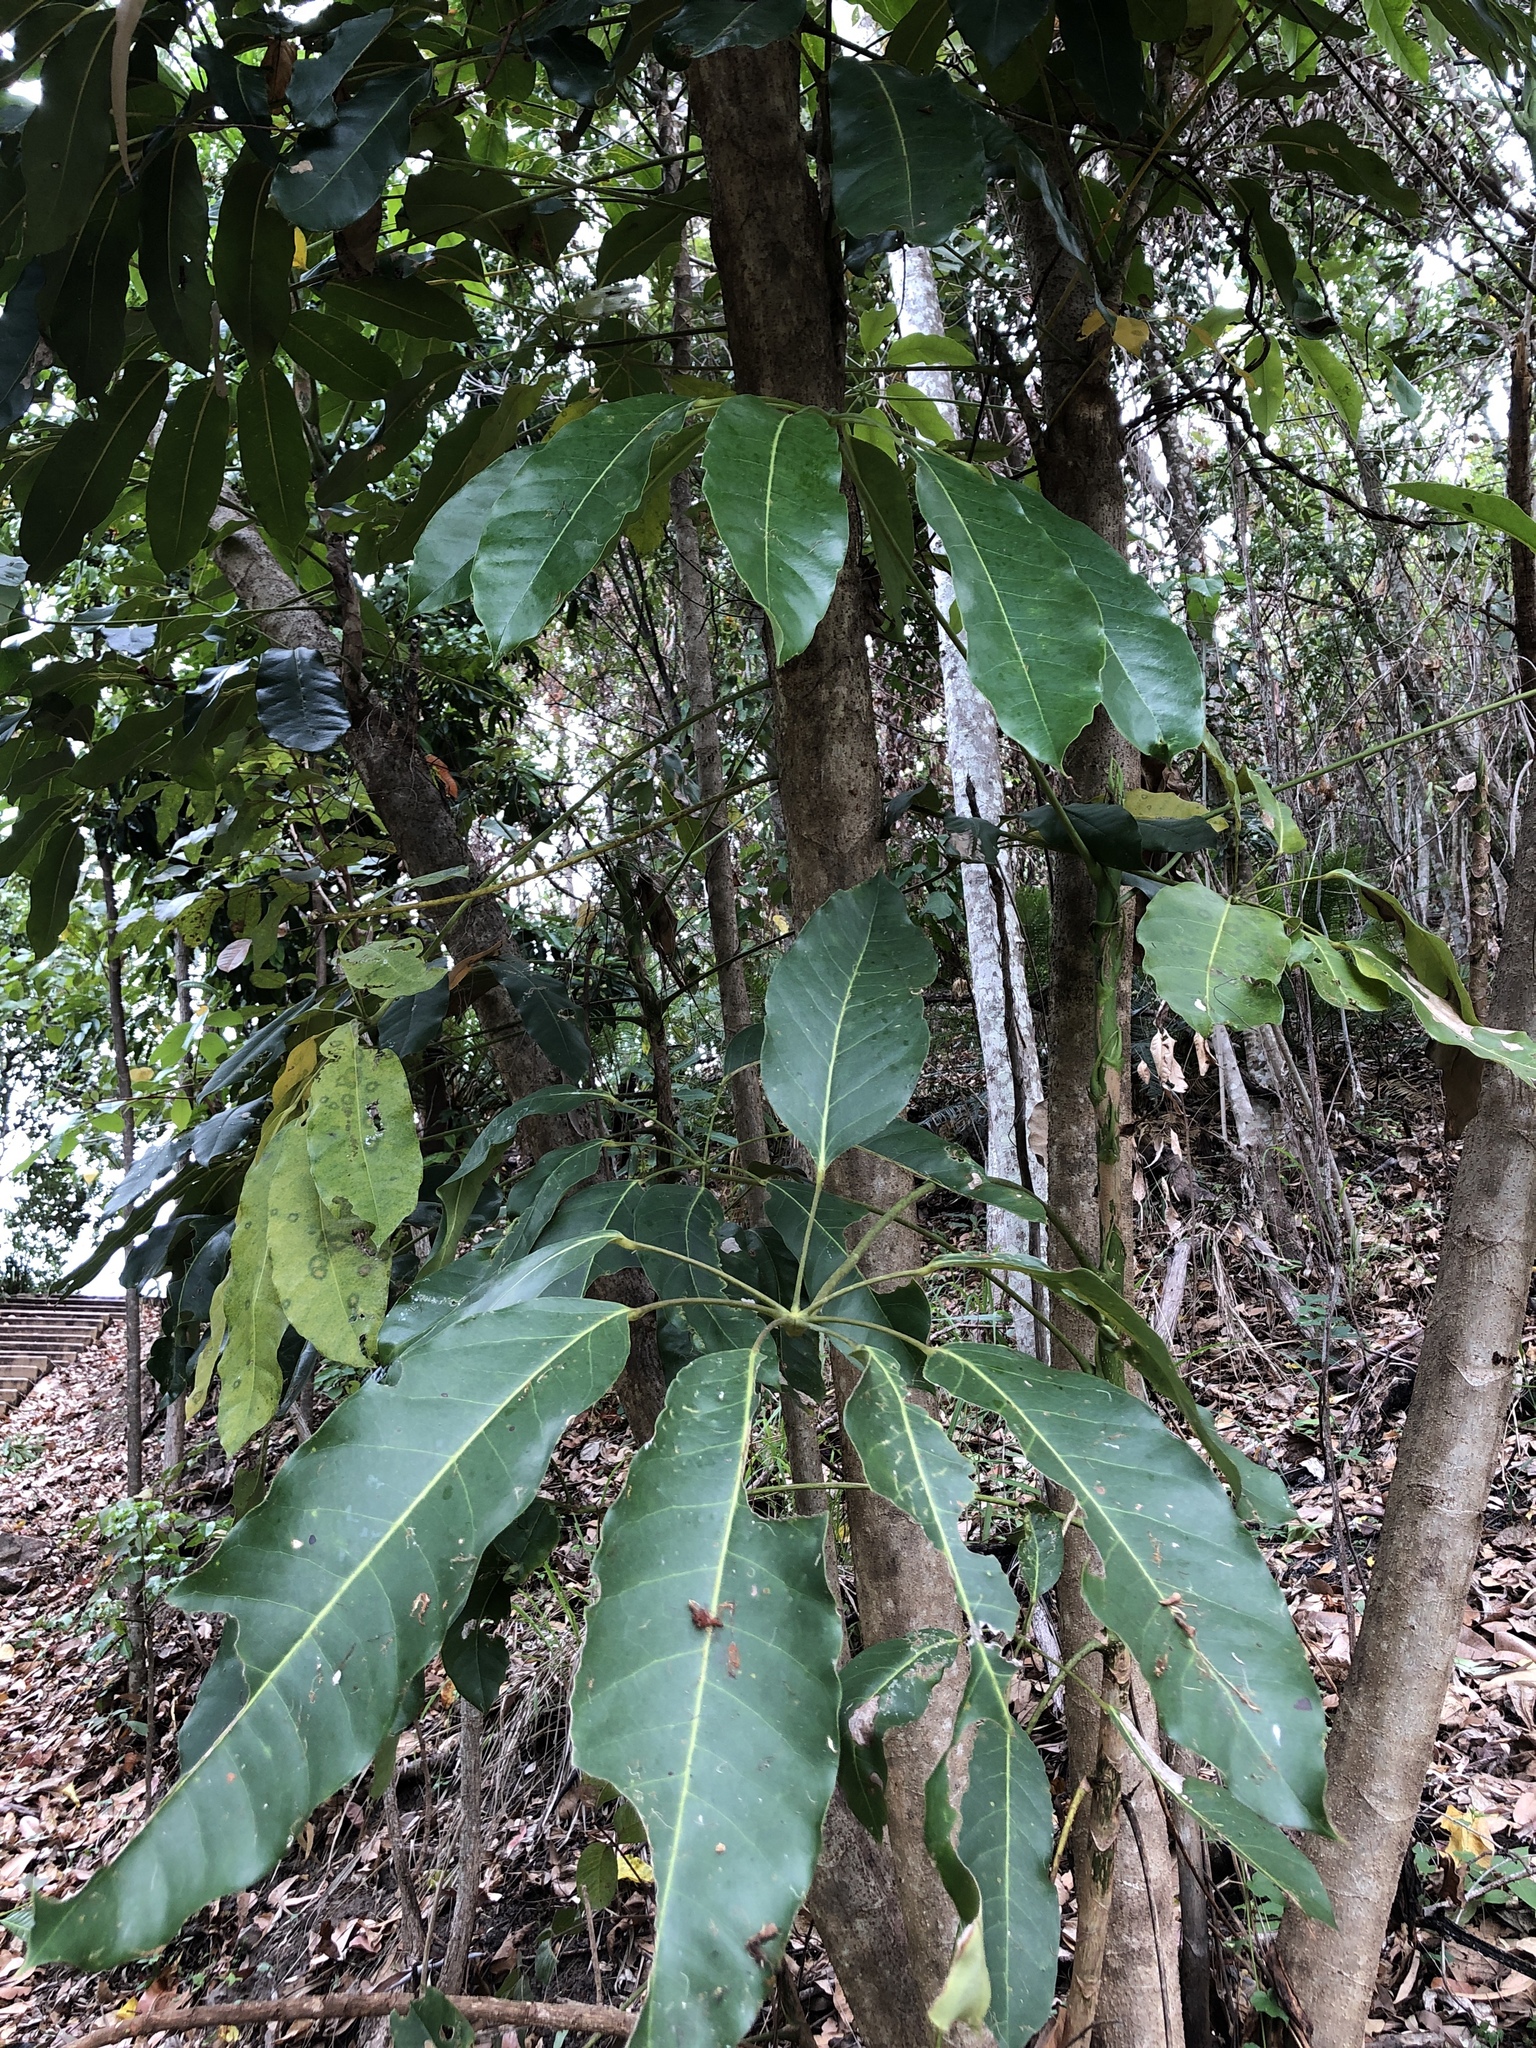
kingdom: Plantae
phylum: Tracheophyta
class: Magnoliopsida
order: Apiales
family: Araliaceae
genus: Heptapleurum
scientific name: Heptapleurum actinophyllum
